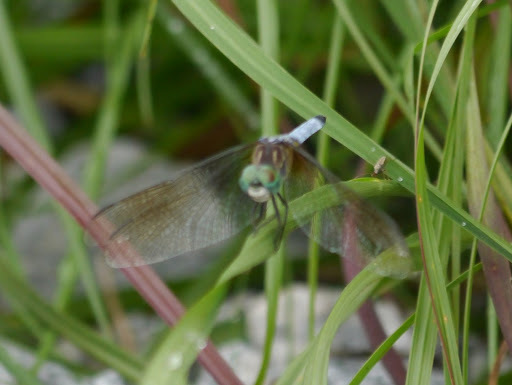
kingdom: Animalia
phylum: Arthropoda
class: Insecta
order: Odonata
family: Libellulidae
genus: Pachydiplax
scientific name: Pachydiplax longipennis
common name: Blue dasher
